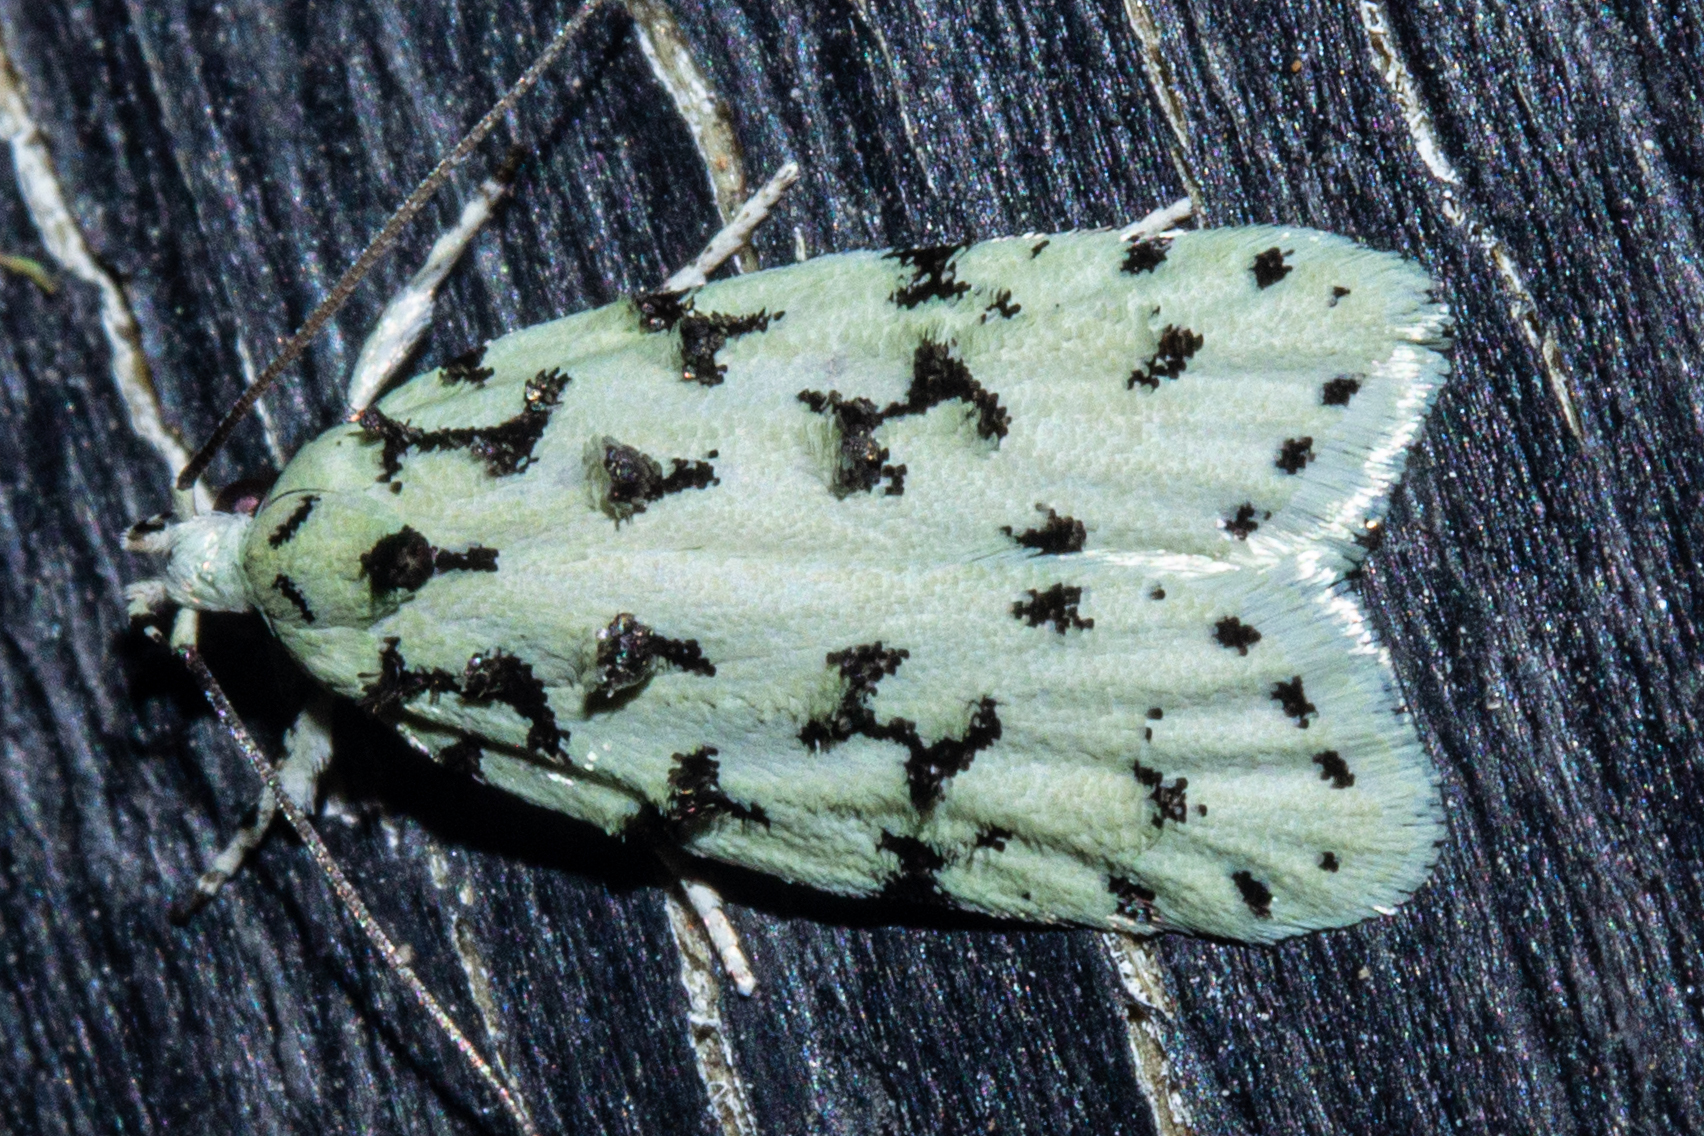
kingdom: Animalia
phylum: Arthropoda
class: Insecta
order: Lepidoptera
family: Oecophoridae
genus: Izatha
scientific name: Izatha huttoni
